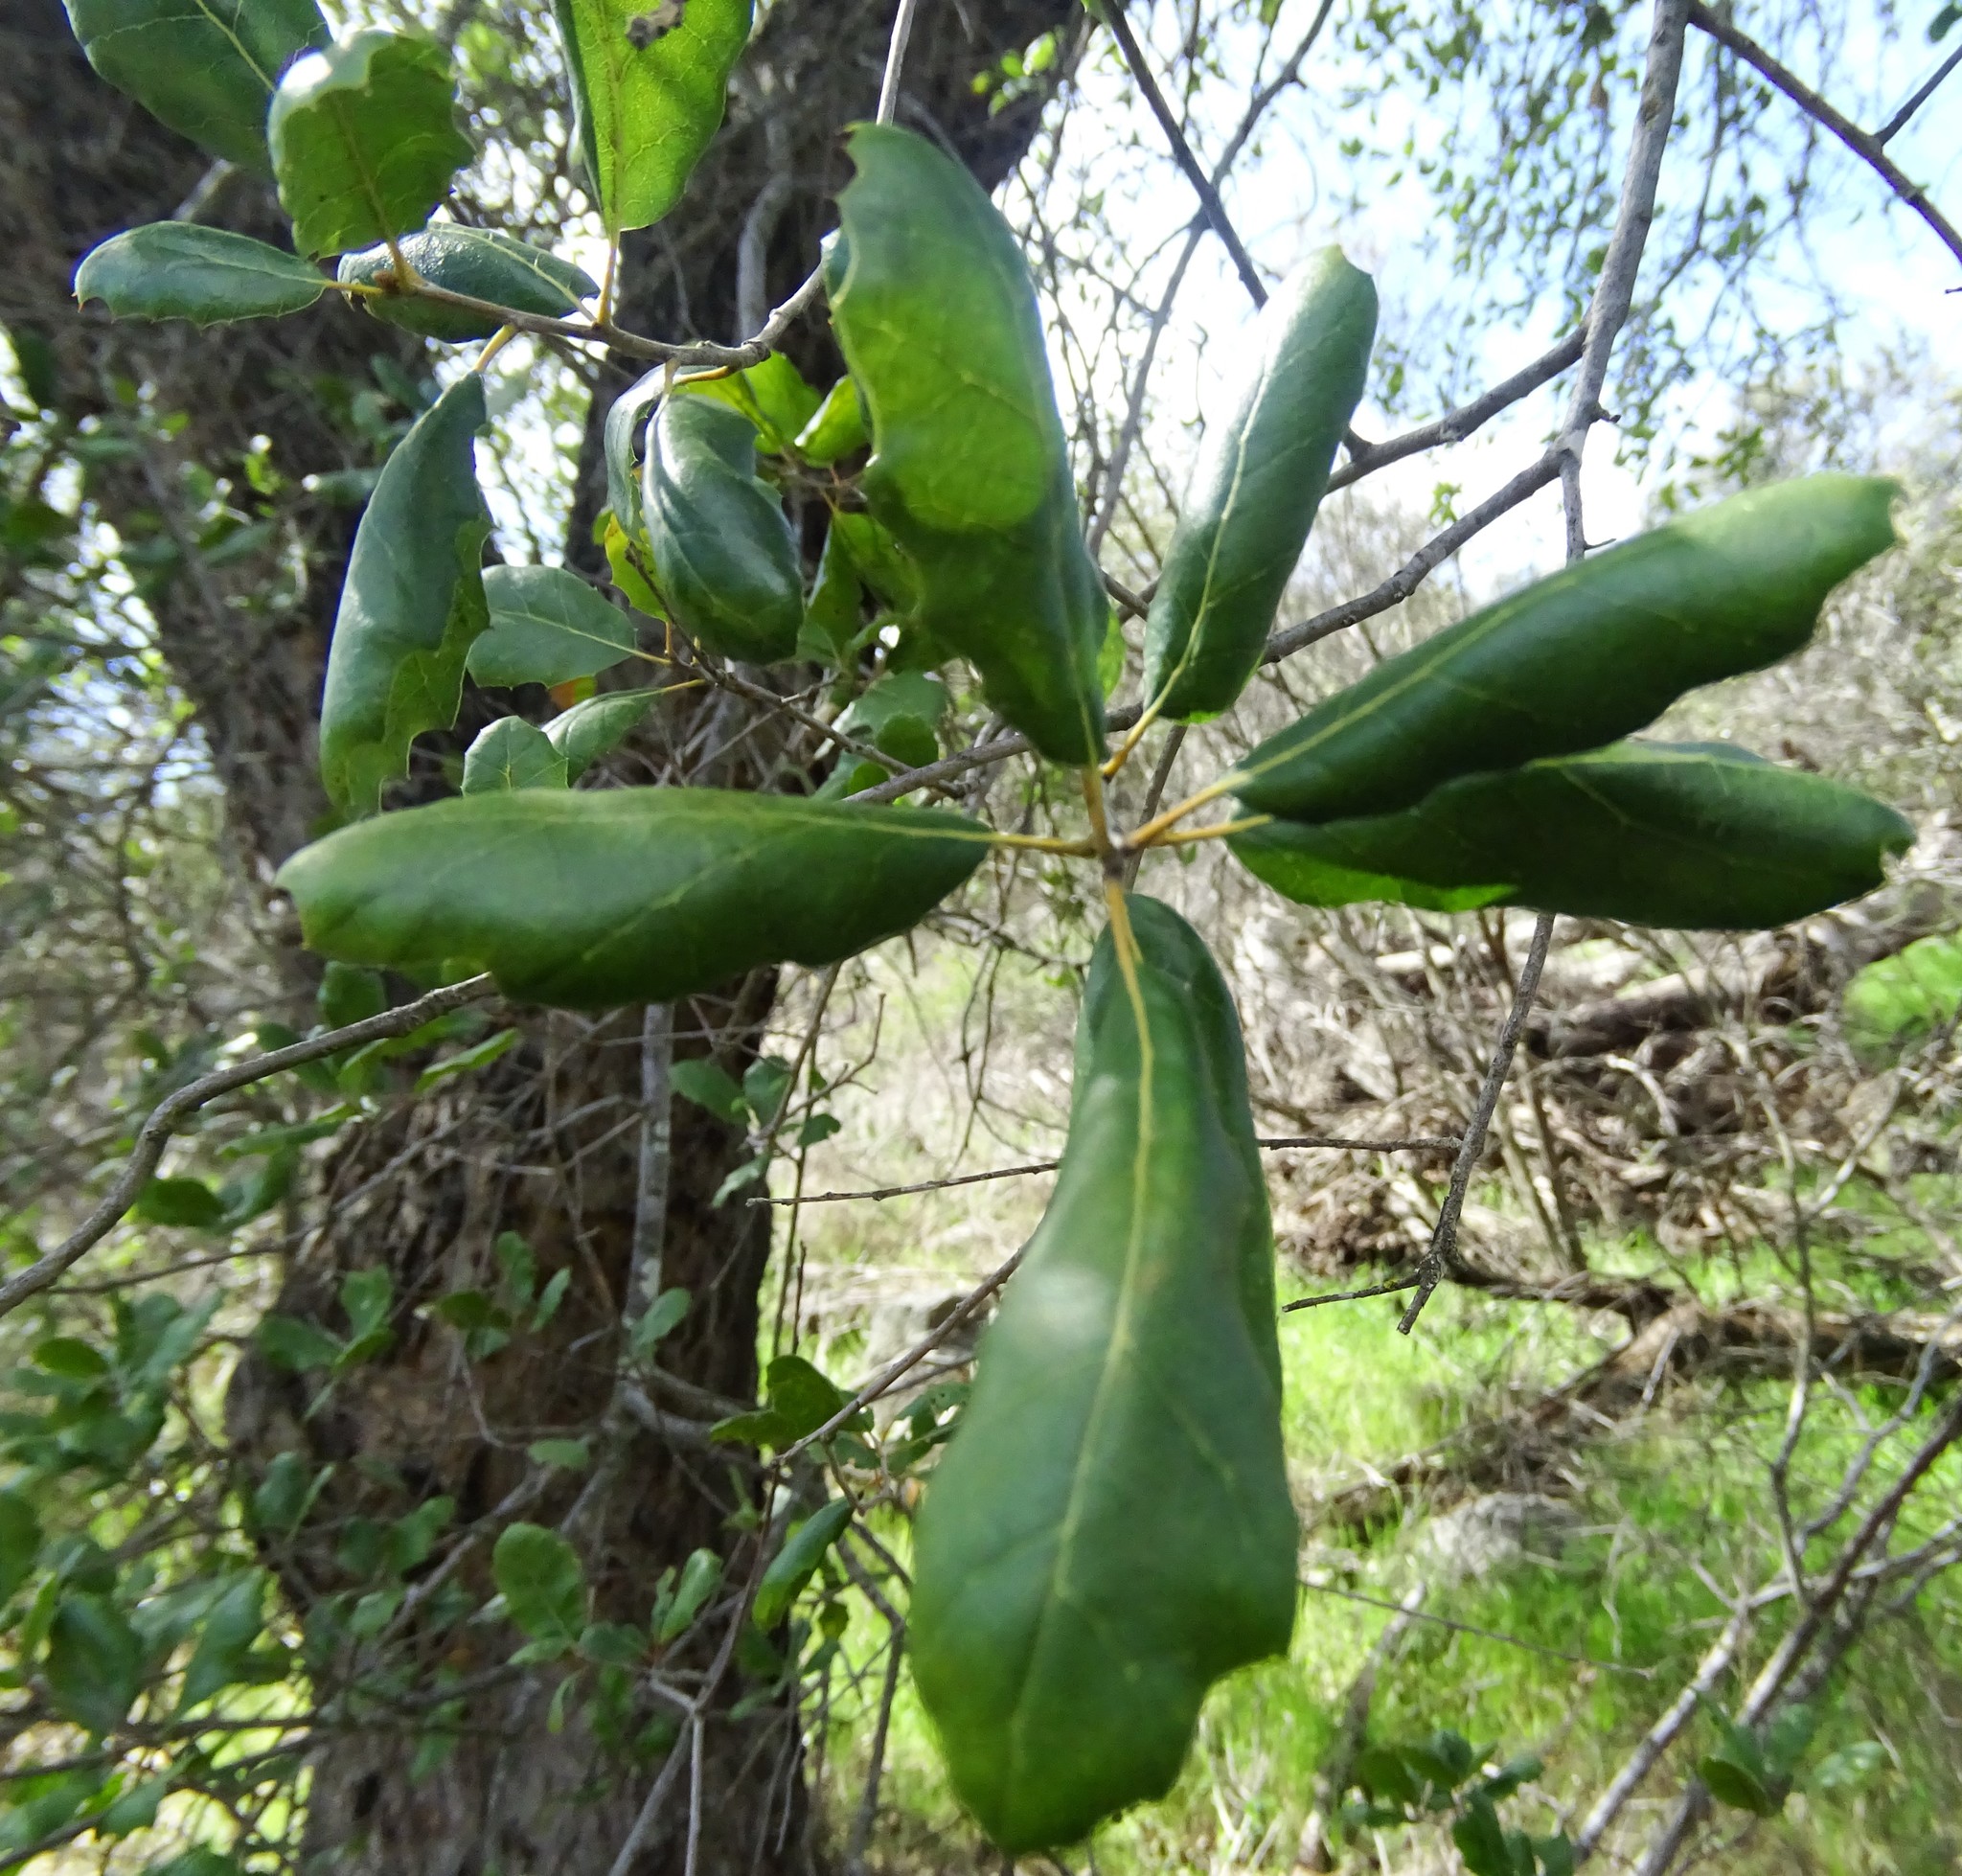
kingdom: Plantae
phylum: Tracheophyta
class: Magnoliopsida
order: Fagales
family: Fagaceae
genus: Quercus
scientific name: Quercus agrifolia
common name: California live oak
